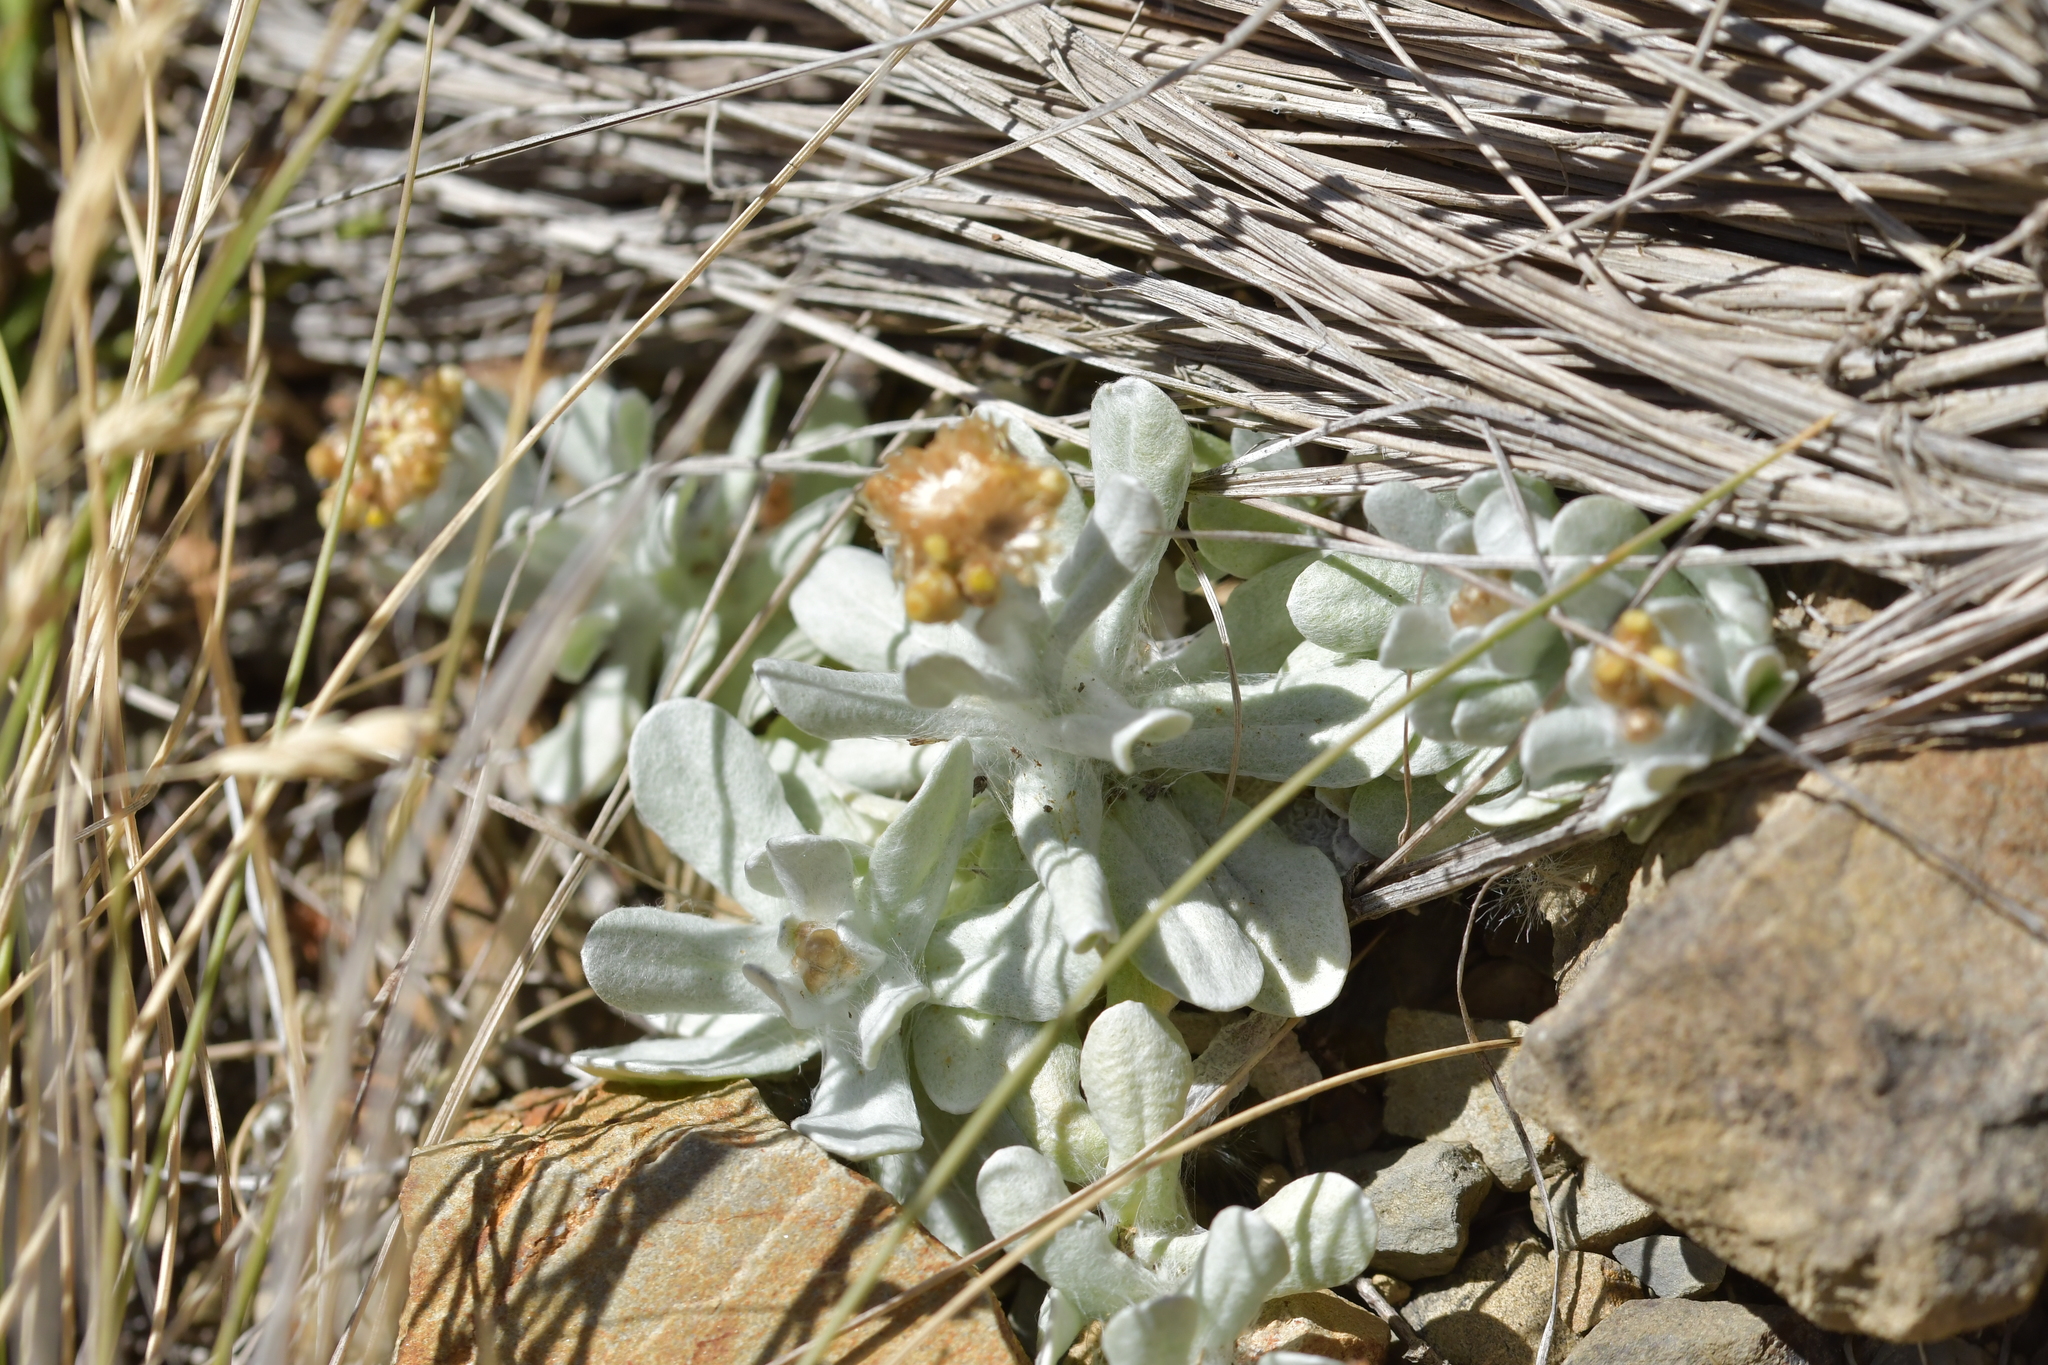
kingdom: Plantae
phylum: Tracheophyta
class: Magnoliopsida
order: Asterales
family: Asteraceae
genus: Pseudognaphalium
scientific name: Pseudognaphalium
